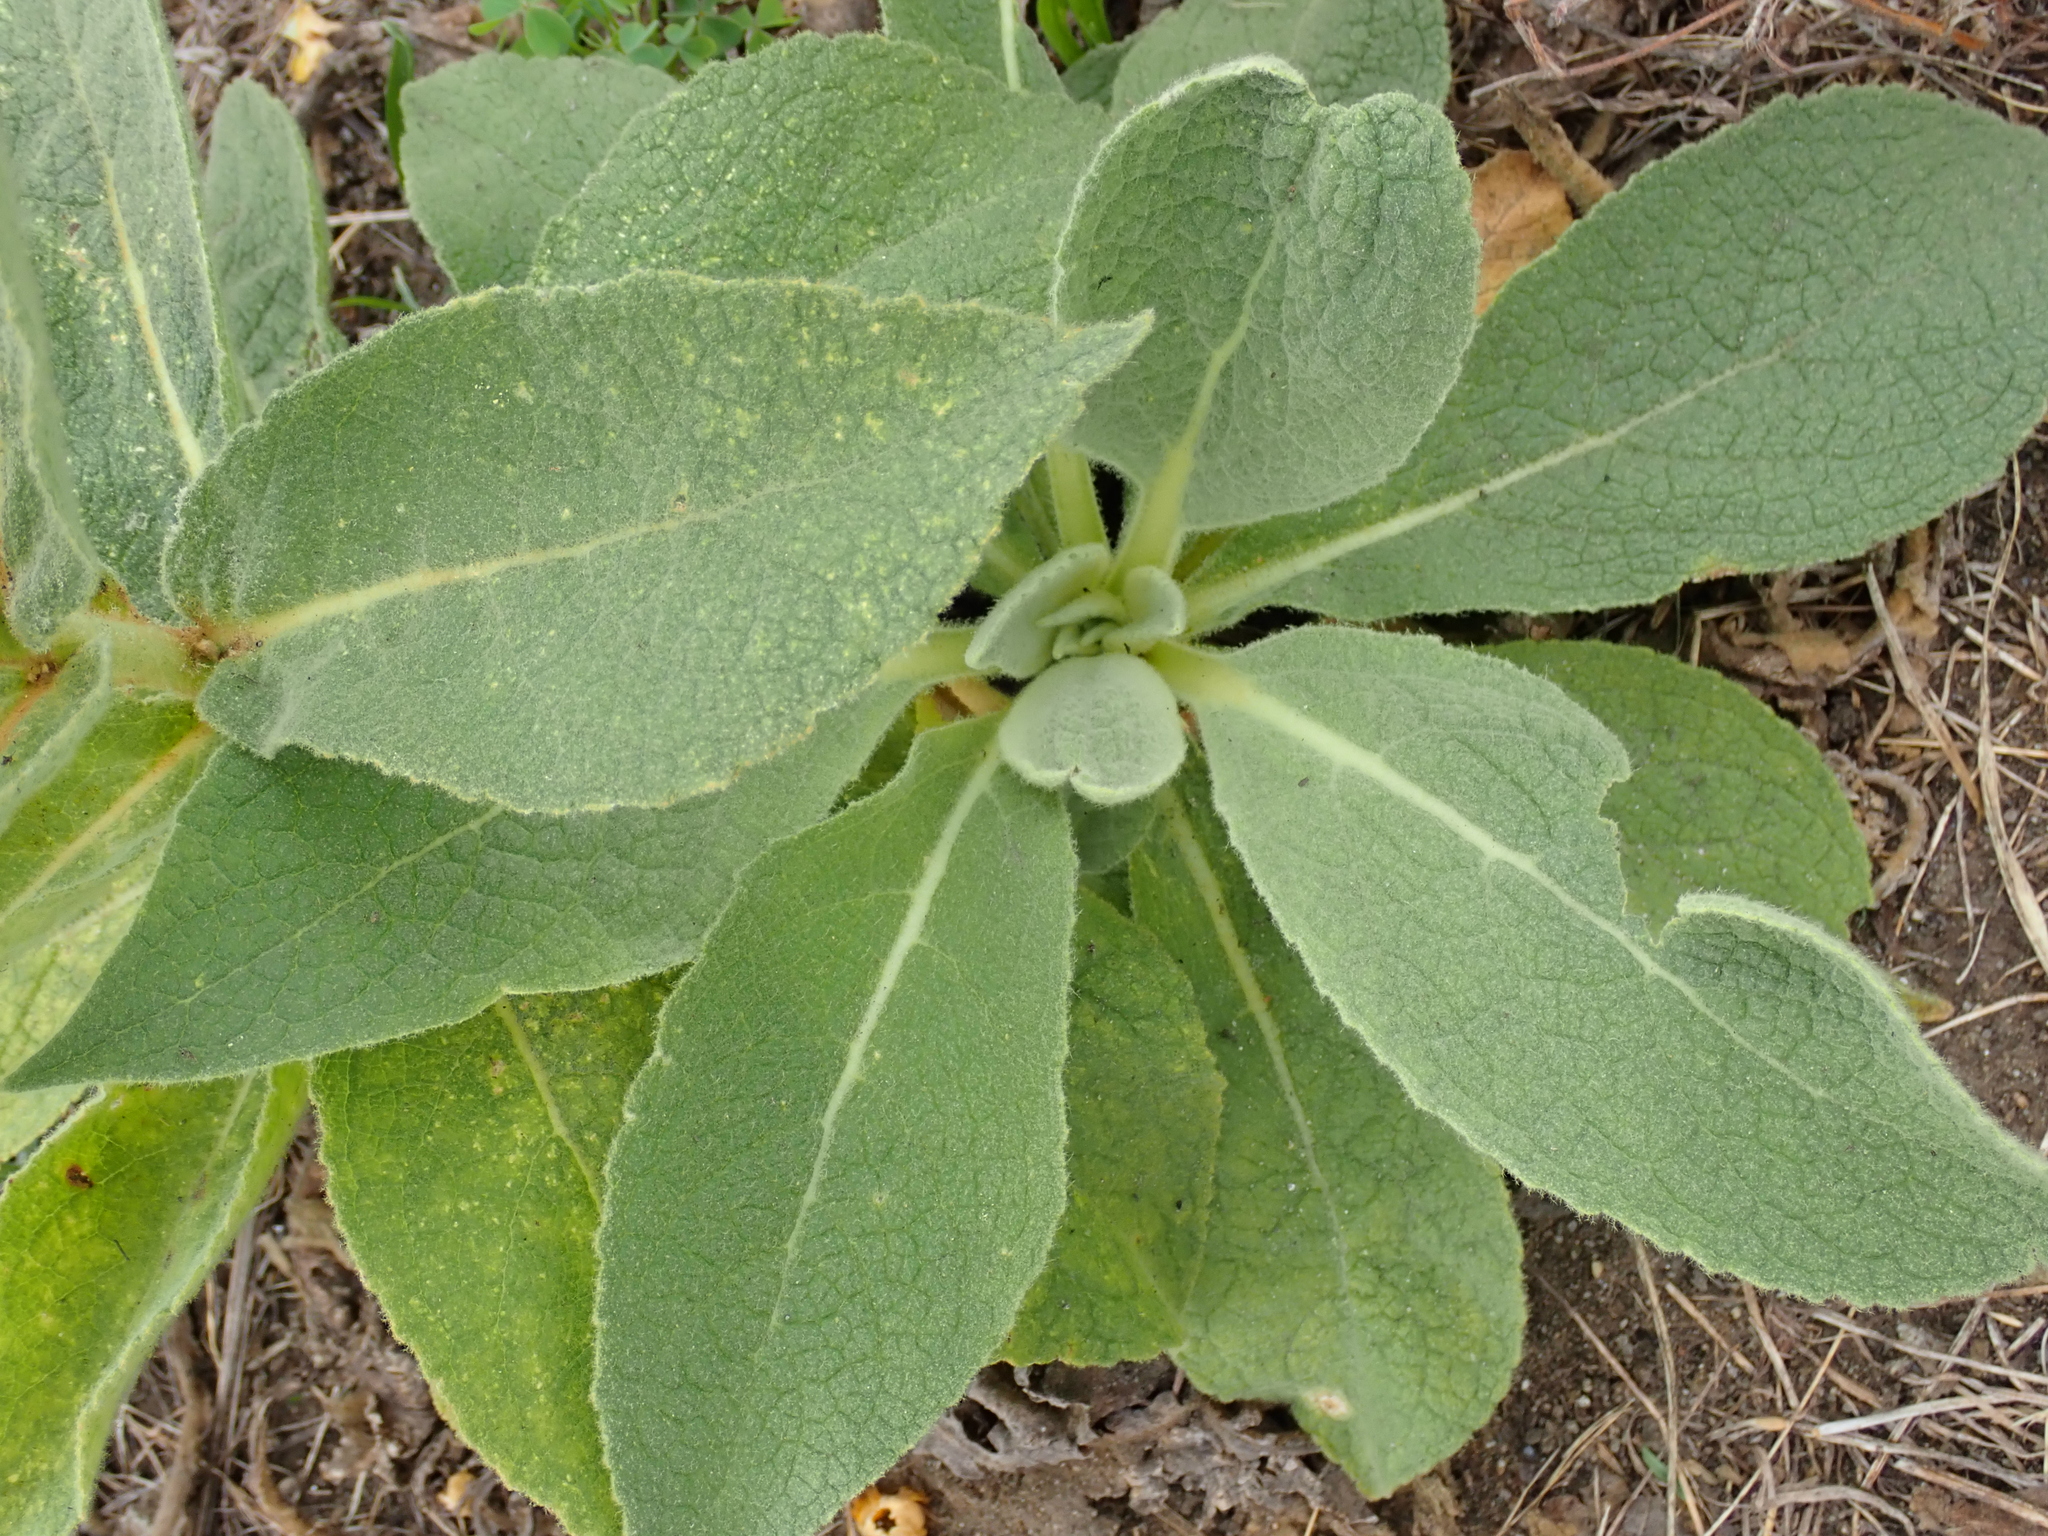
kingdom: Plantae
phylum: Tracheophyta
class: Magnoliopsida
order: Lamiales
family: Scrophulariaceae
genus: Verbascum
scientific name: Verbascum phlomoides
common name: Orange mullein
